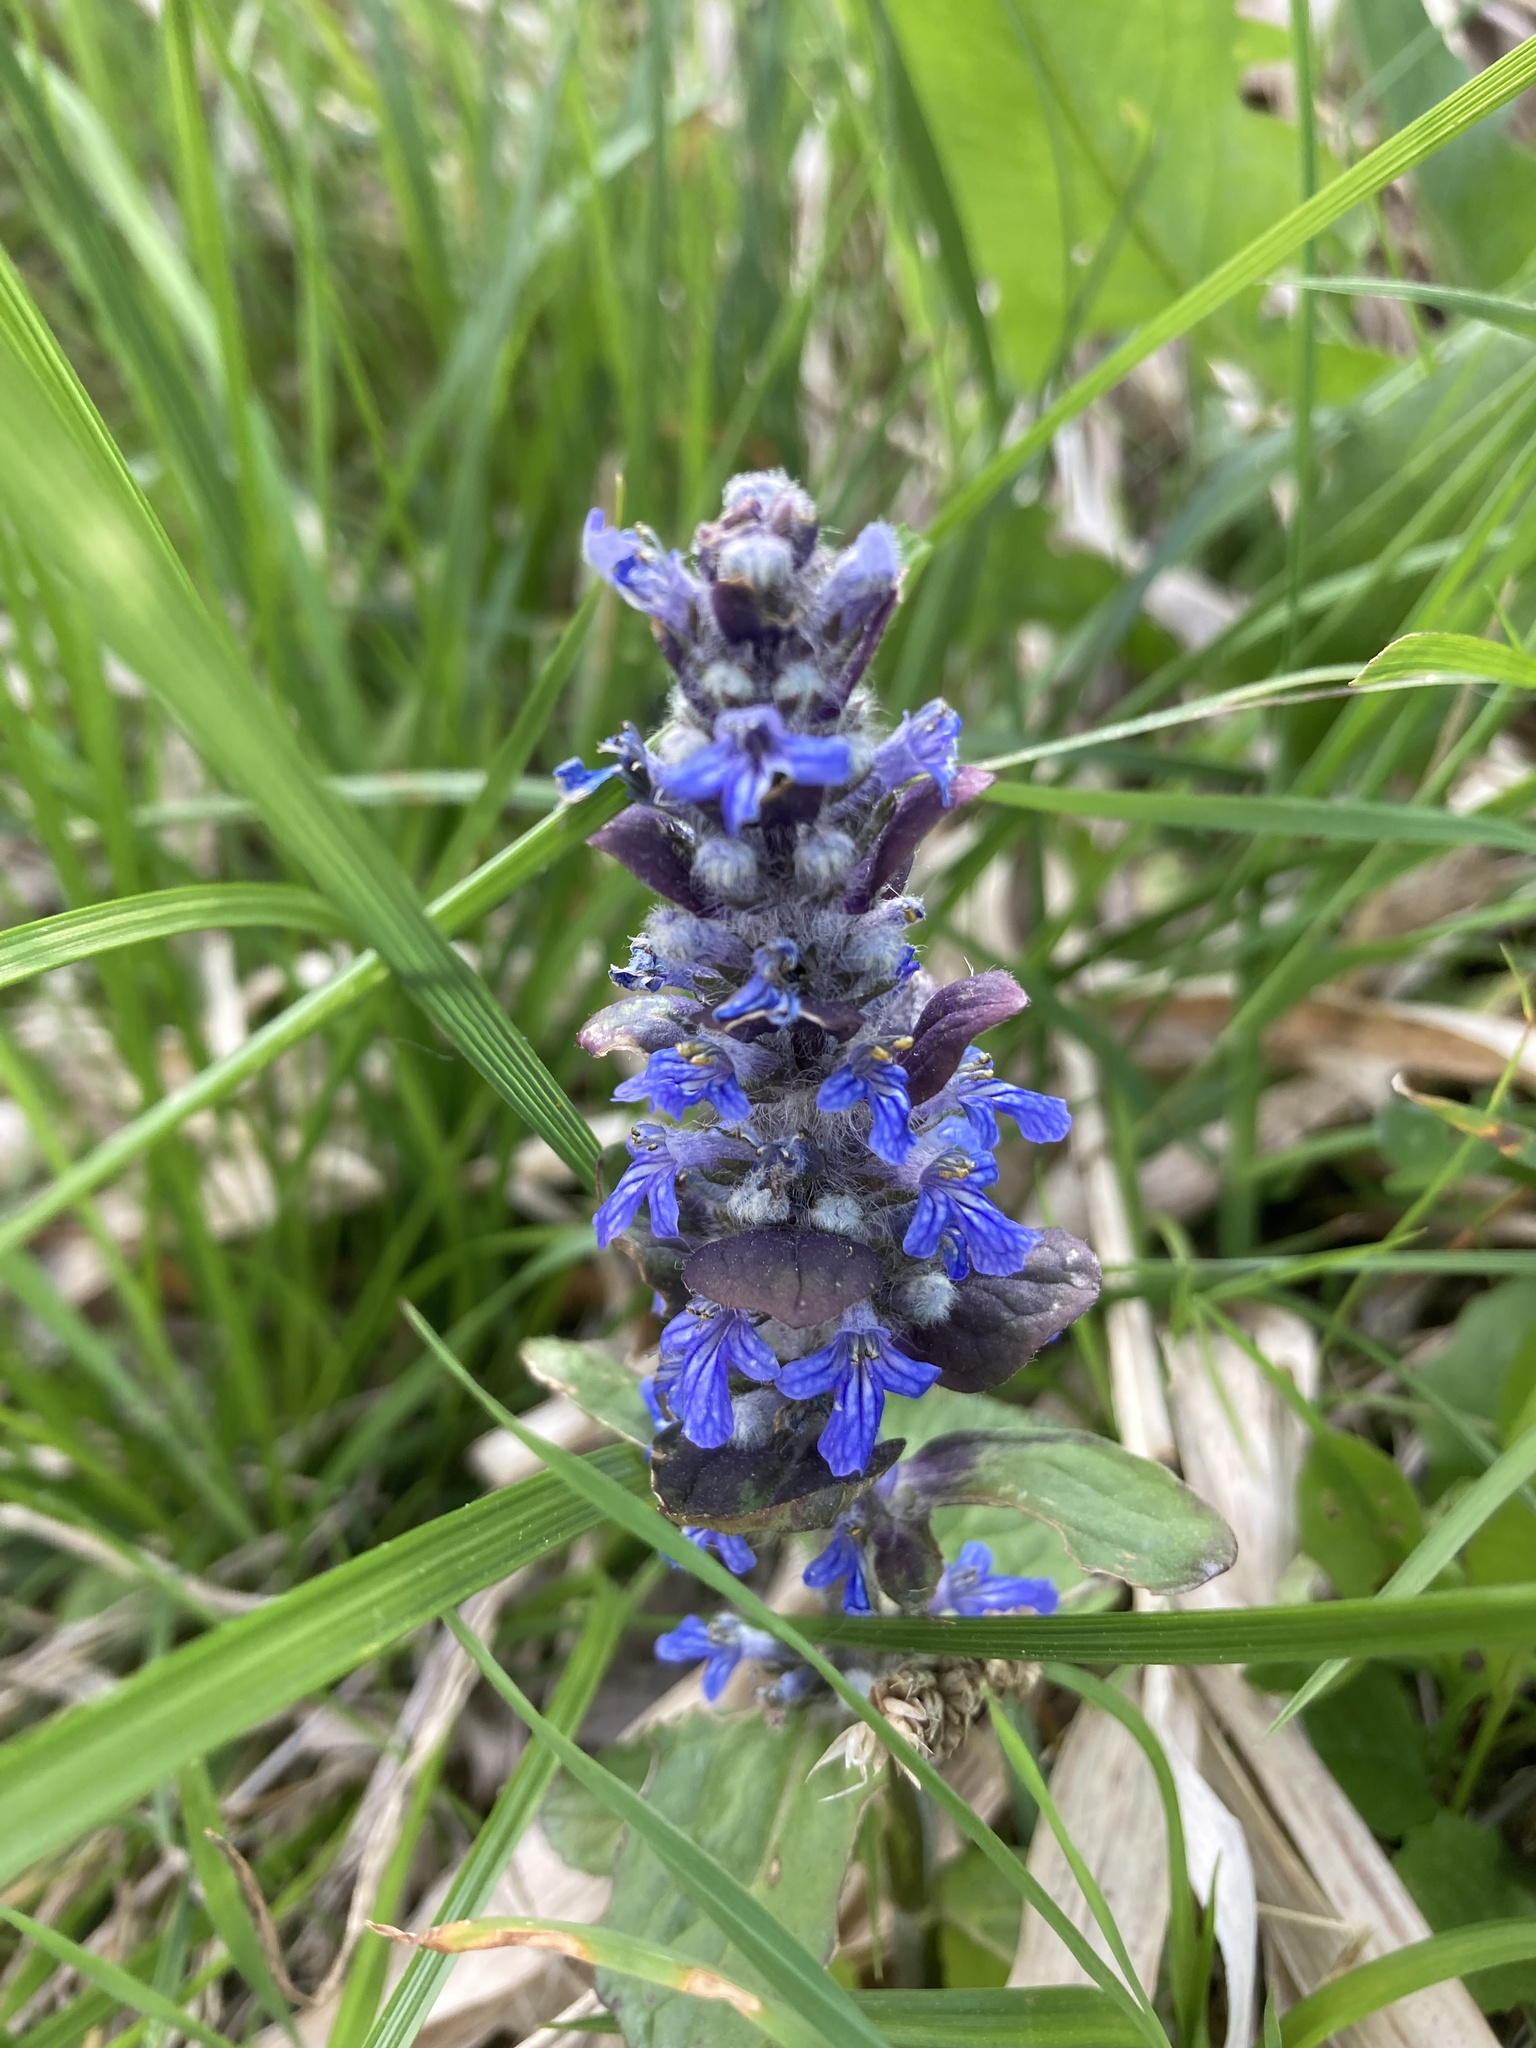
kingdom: Plantae
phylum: Tracheophyta
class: Magnoliopsida
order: Lamiales
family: Lamiaceae
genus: Ajuga
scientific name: Ajuga reptans
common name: Bugle
